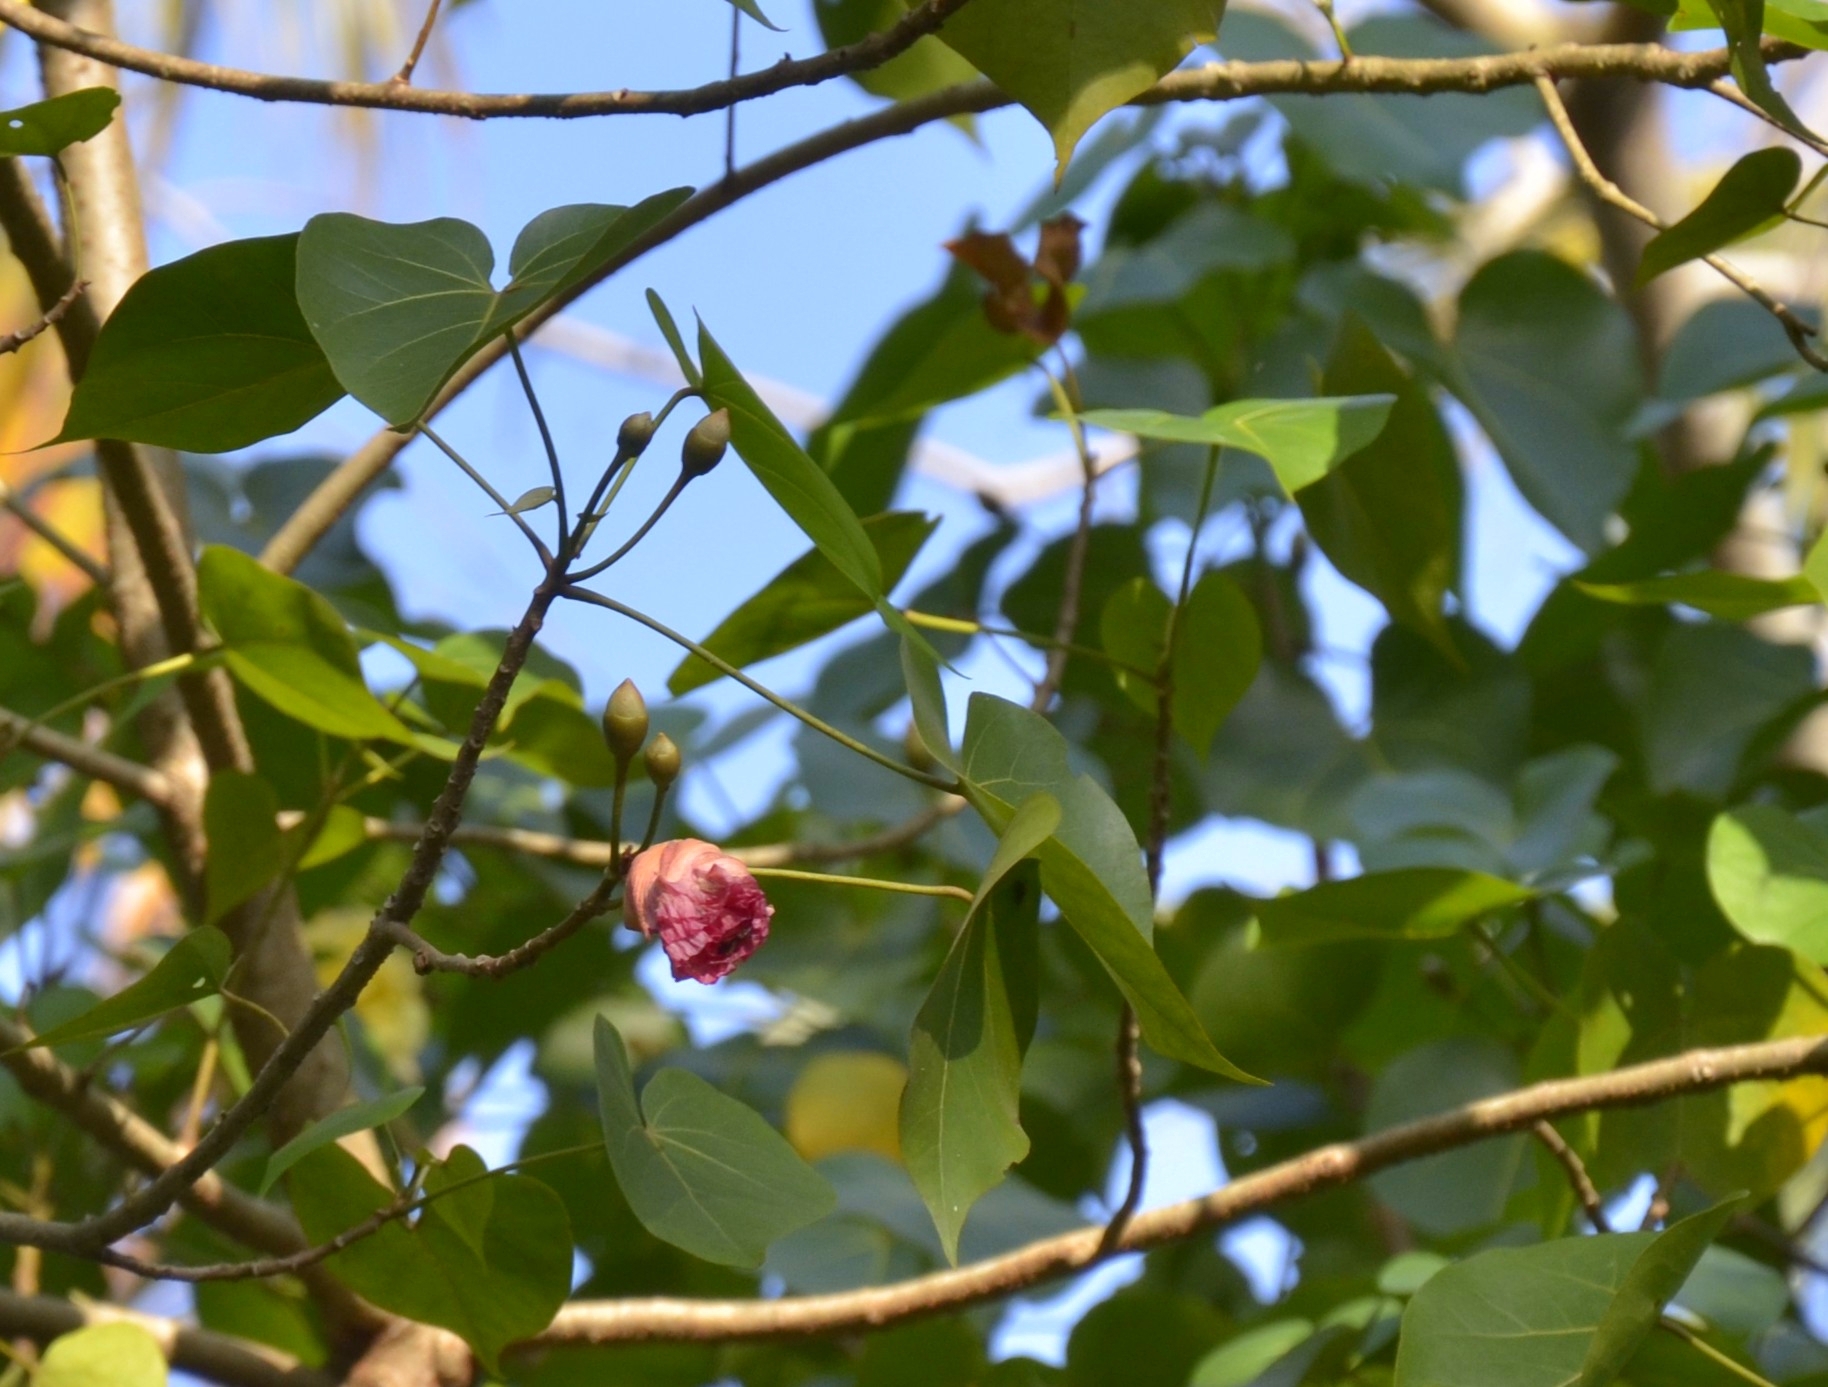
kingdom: Plantae
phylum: Tracheophyta
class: Magnoliopsida
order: Malvales
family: Malvaceae
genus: Thespesia
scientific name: Thespesia populnea
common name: Seaside mahoe
